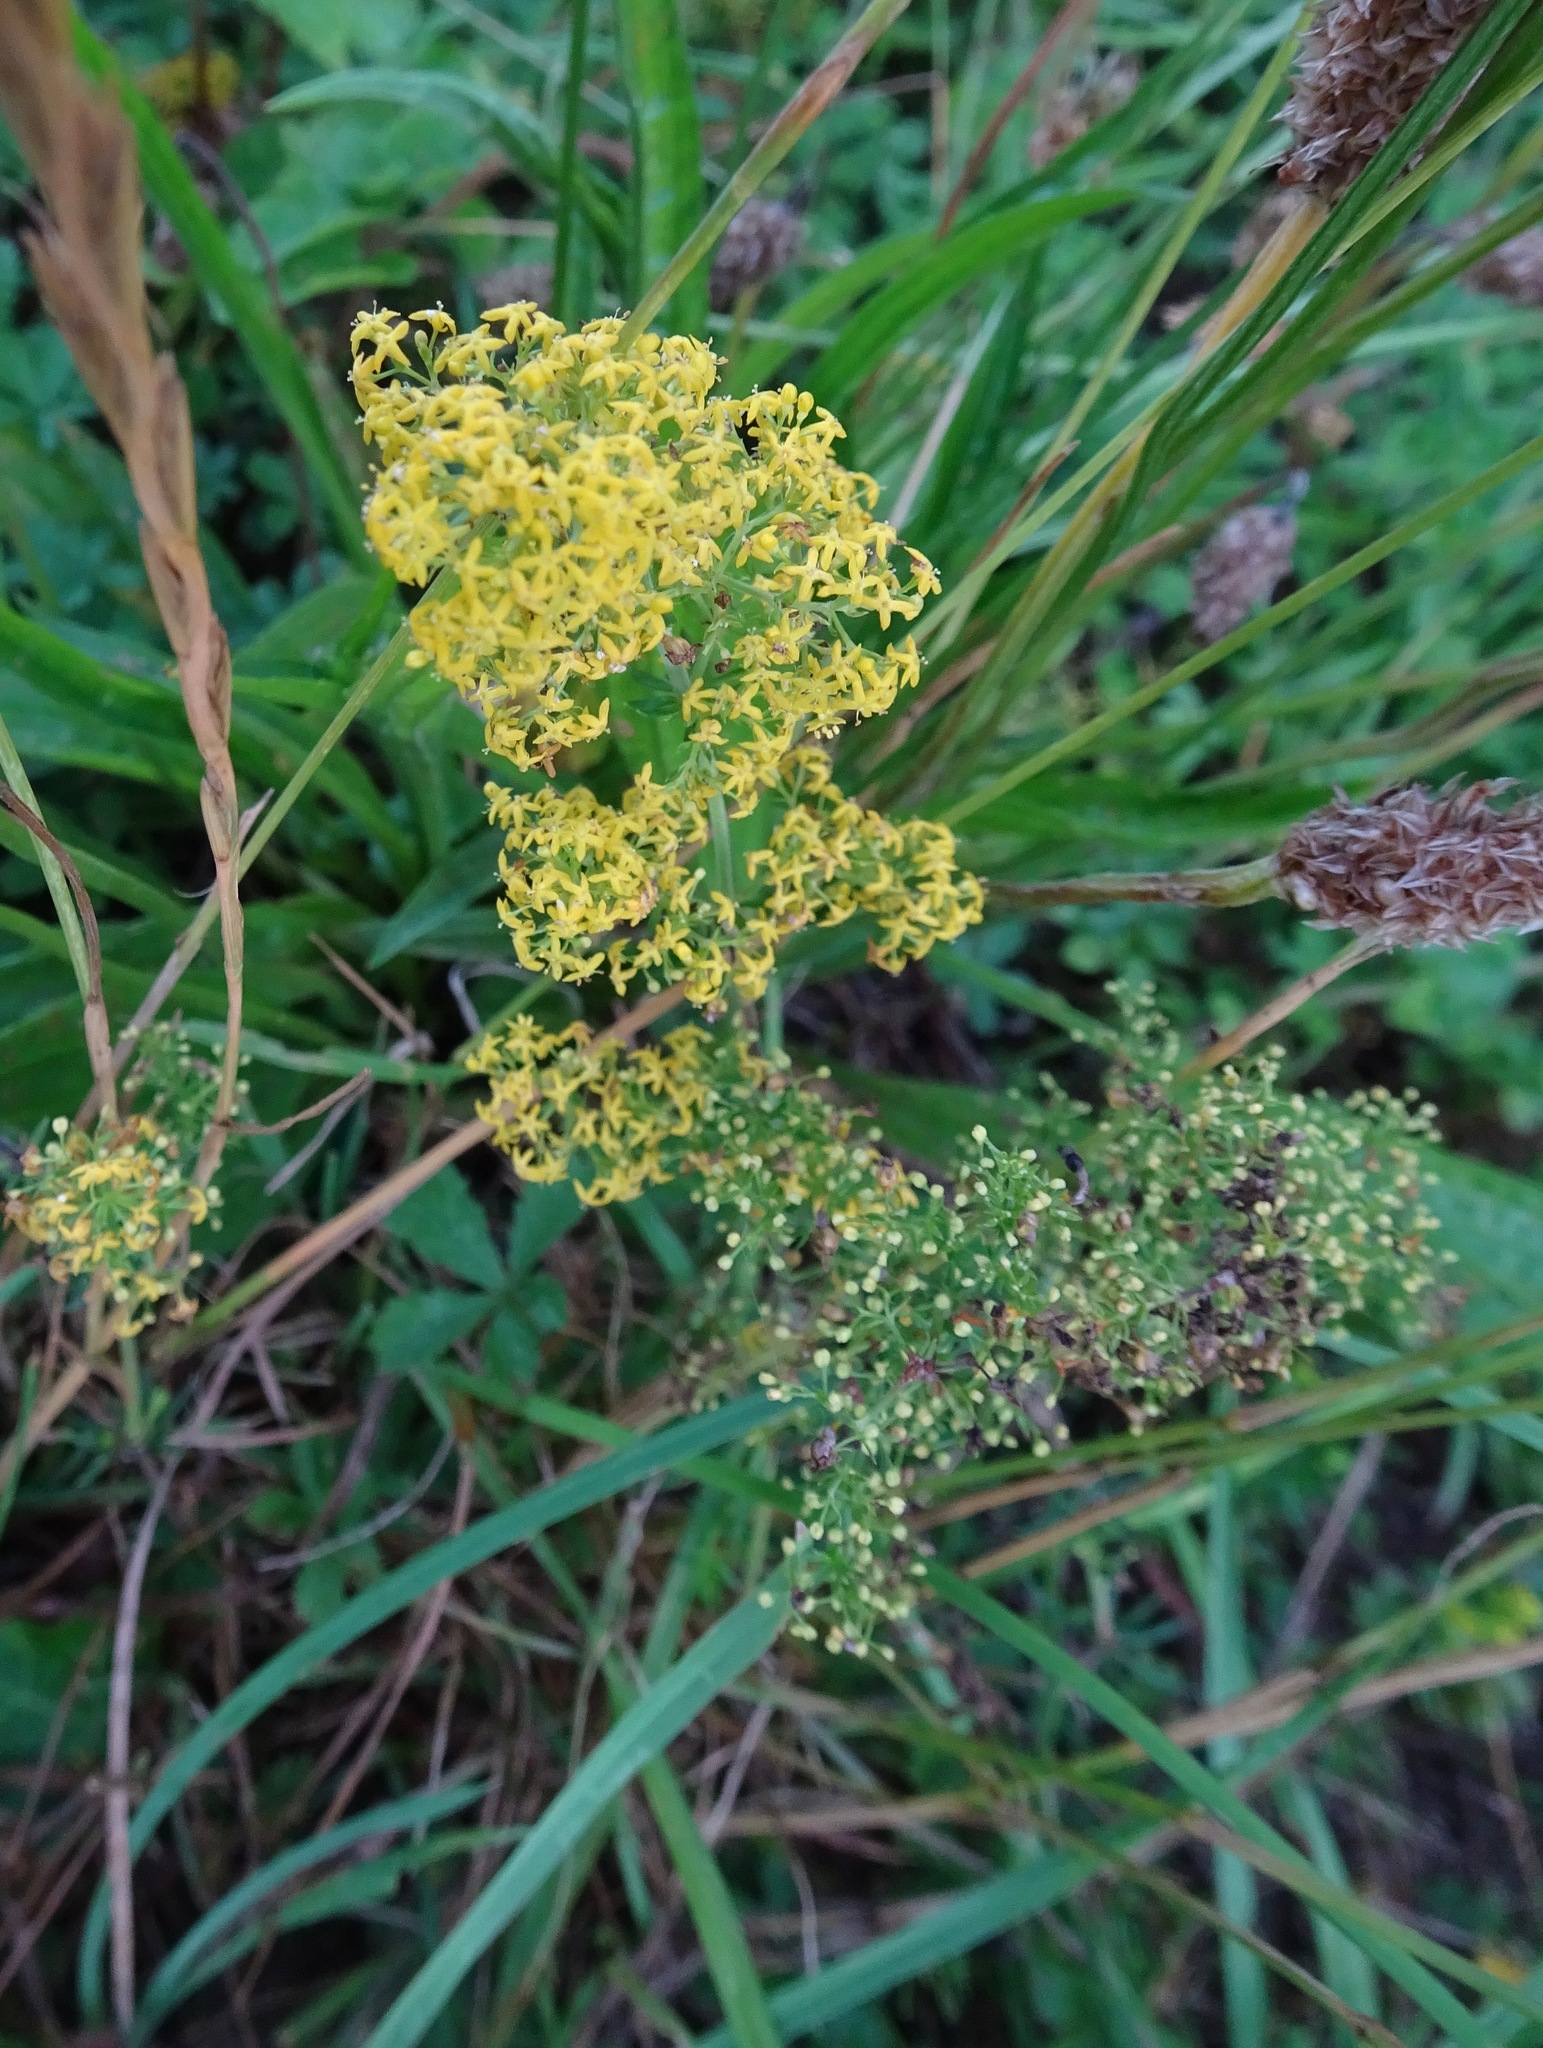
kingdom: Plantae
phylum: Tracheophyta
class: Magnoliopsida
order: Gentianales
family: Rubiaceae
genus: Galium
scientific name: Galium verum
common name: Lady's bedstraw
